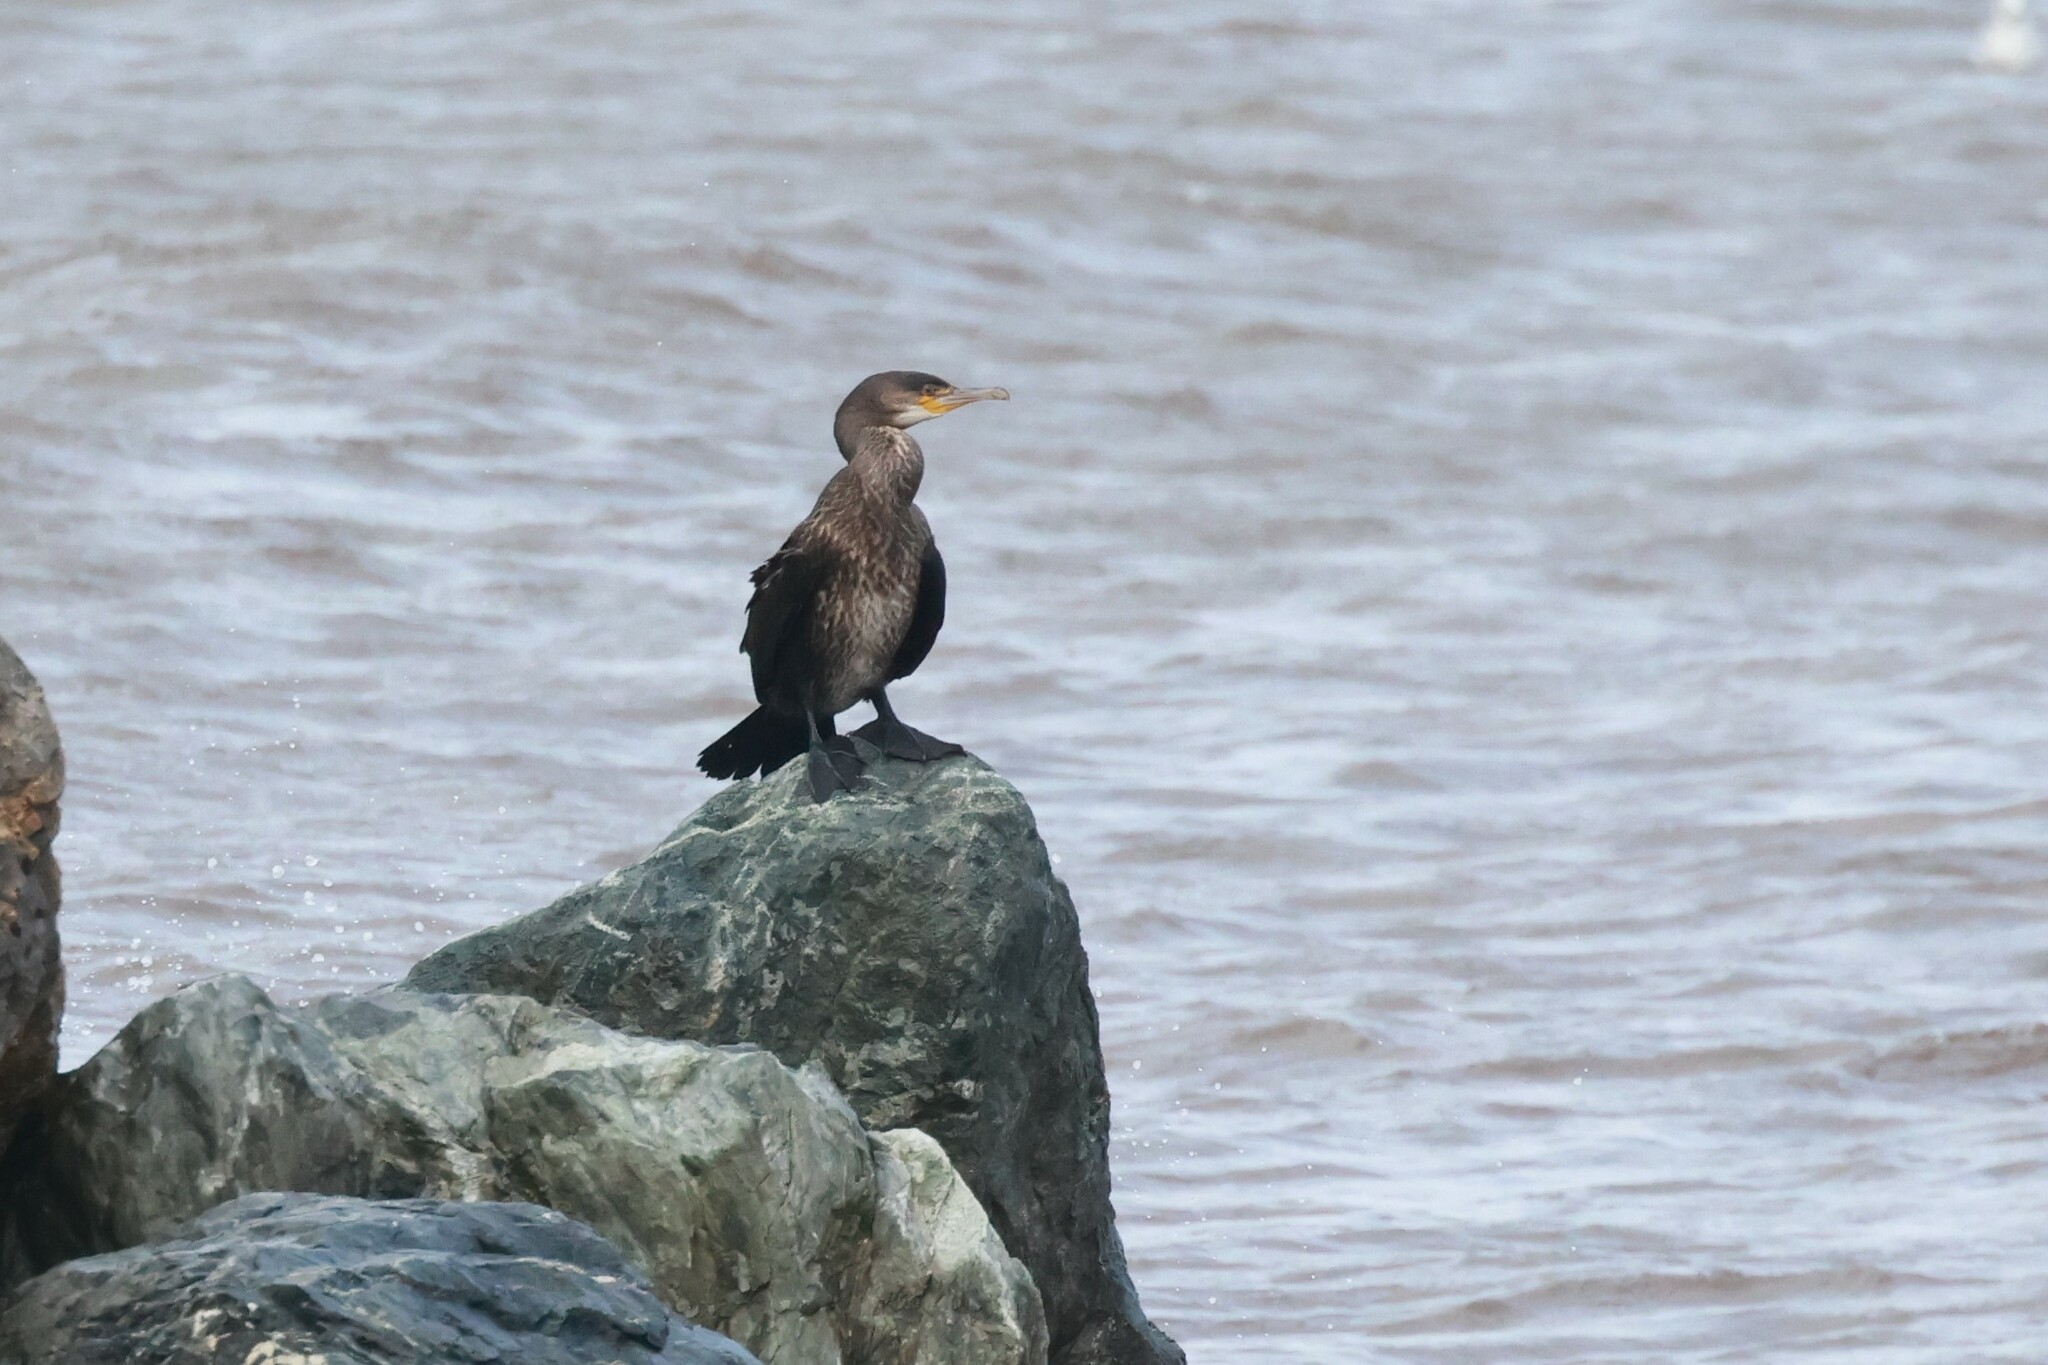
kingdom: Animalia
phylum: Chordata
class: Aves
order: Suliformes
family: Phalacrocoracidae
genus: Phalacrocorax
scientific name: Phalacrocorax carbo
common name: Great cormorant
